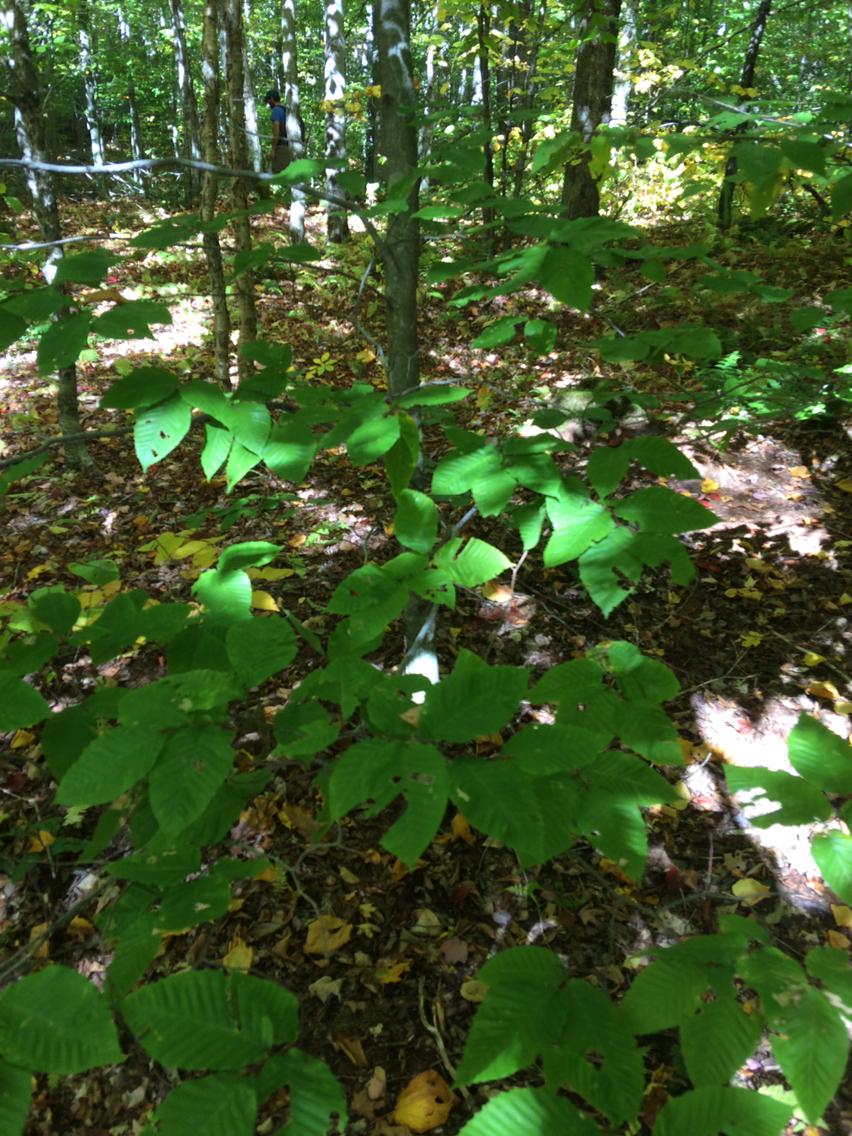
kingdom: Plantae
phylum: Tracheophyta
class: Magnoliopsida
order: Fagales
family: Fagaceae
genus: Fagus
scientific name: Fagus grandifolia
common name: American beech
